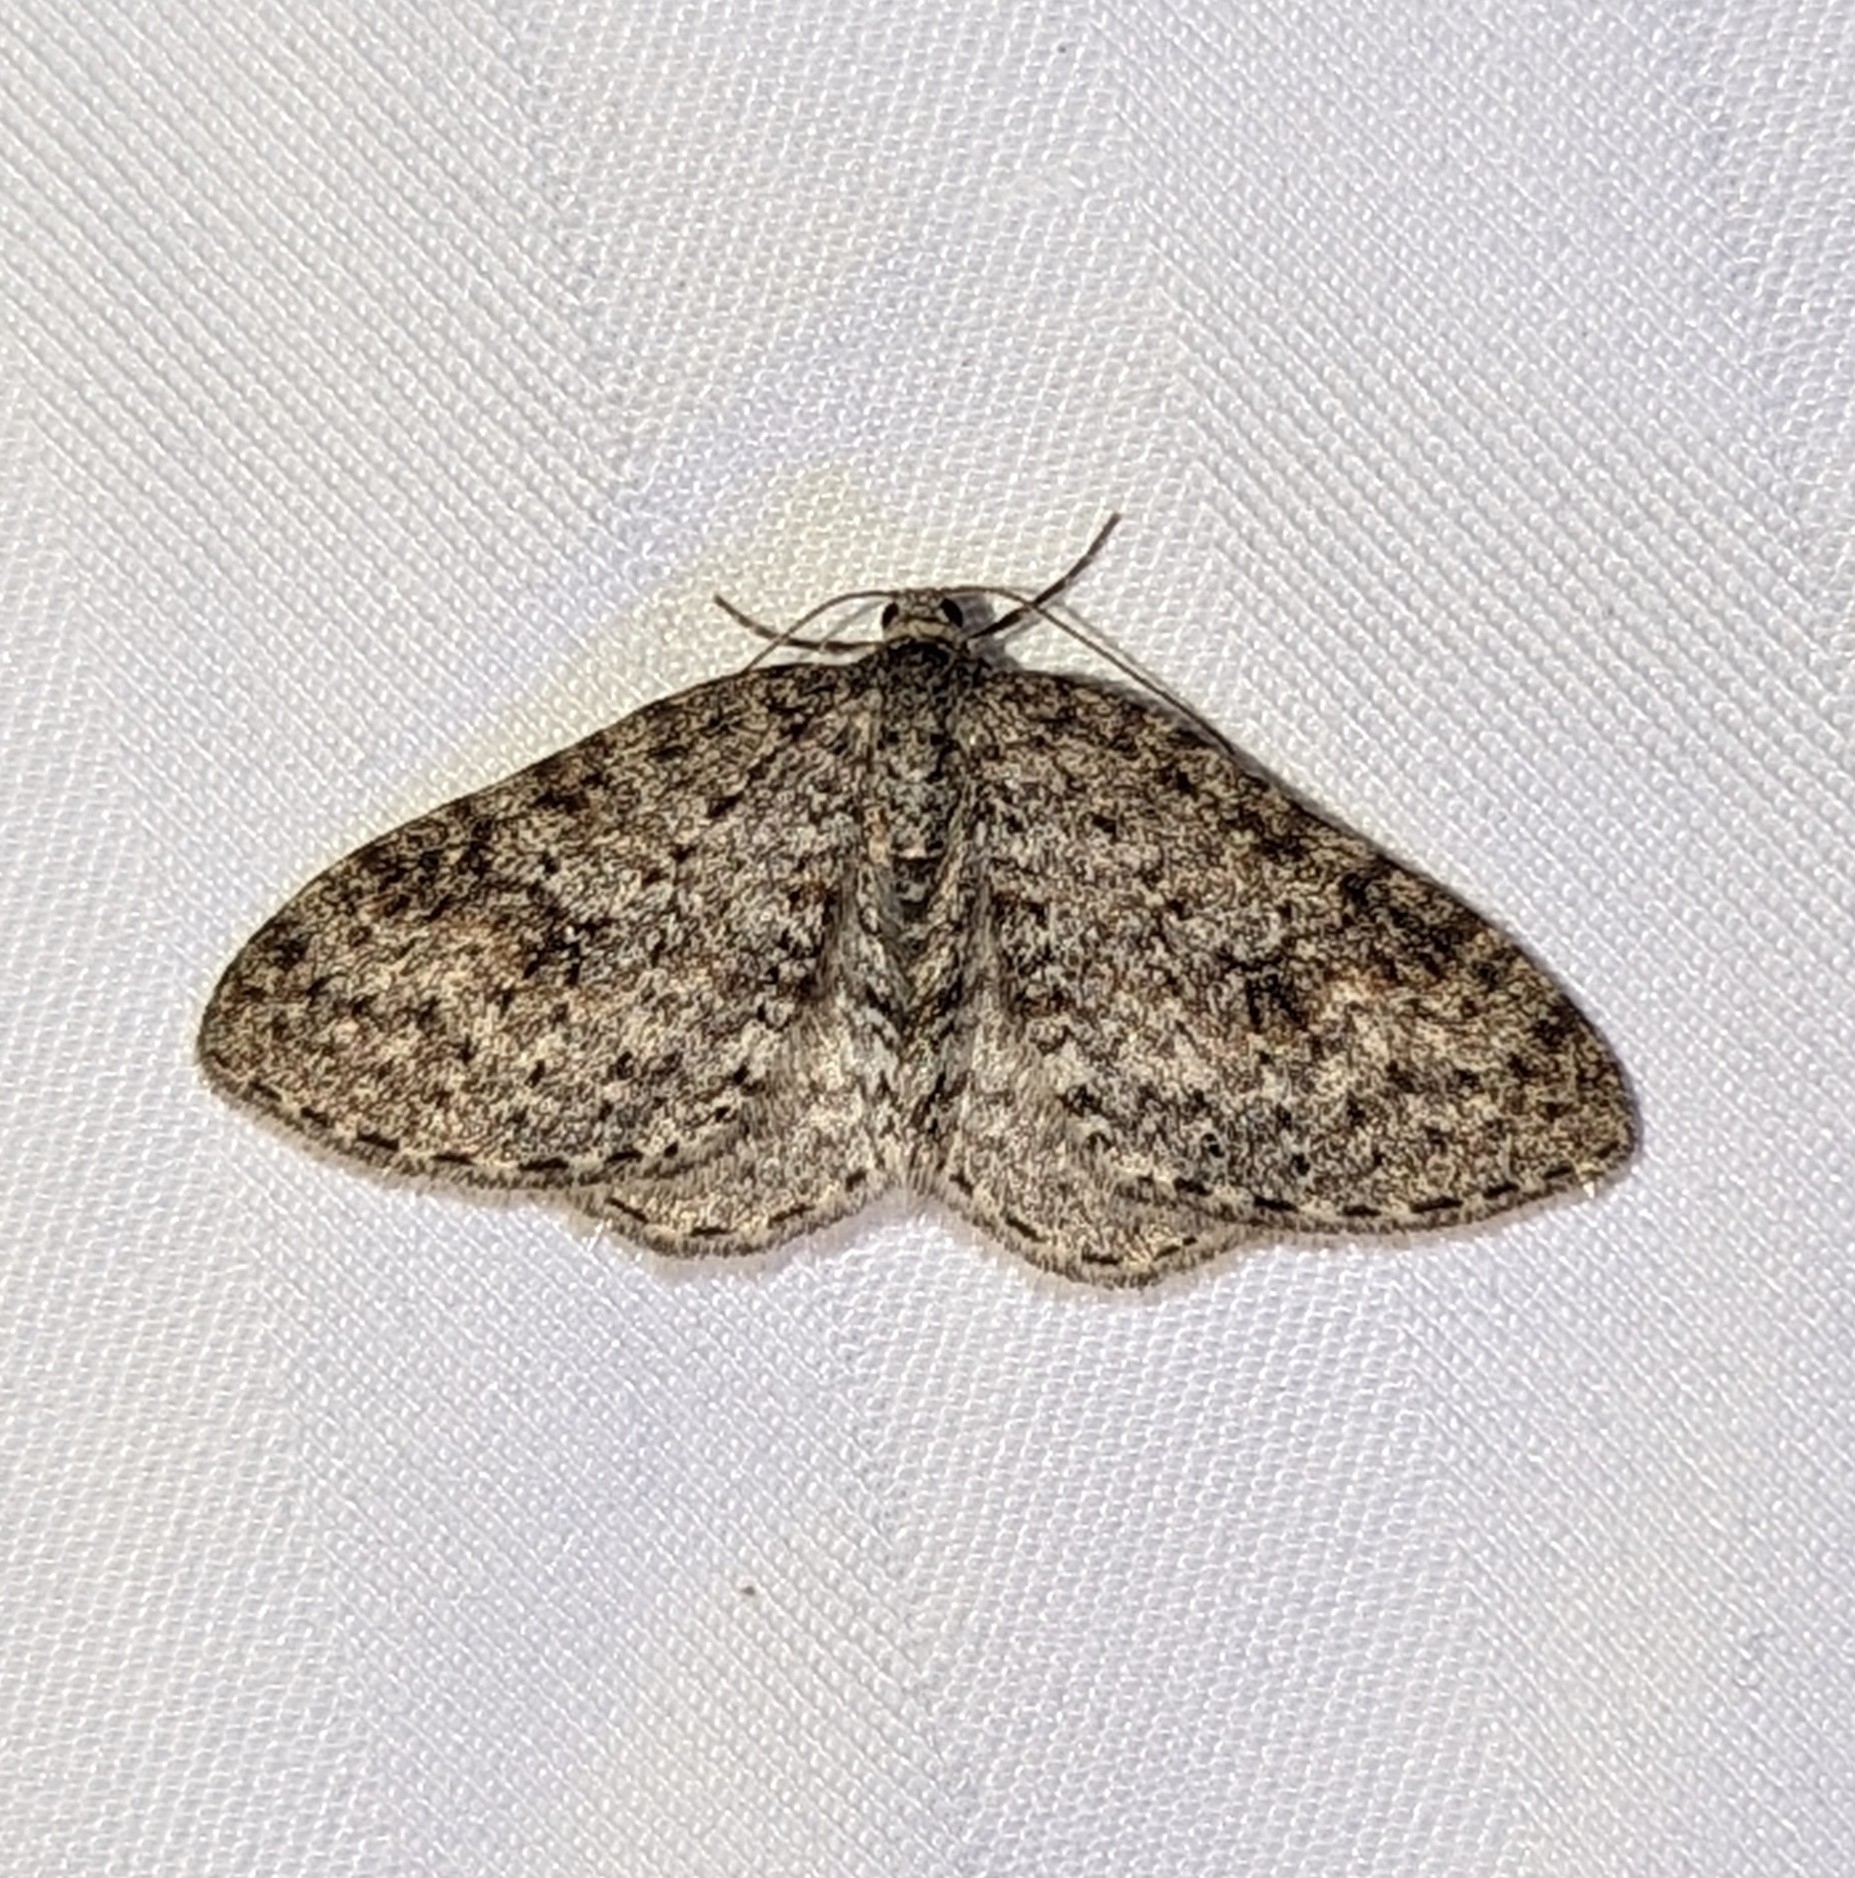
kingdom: Animalia
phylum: Arthropoda
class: Insecta
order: Lepidoptera
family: Geometridae
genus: Venusia
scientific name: Venusia pearsalli
